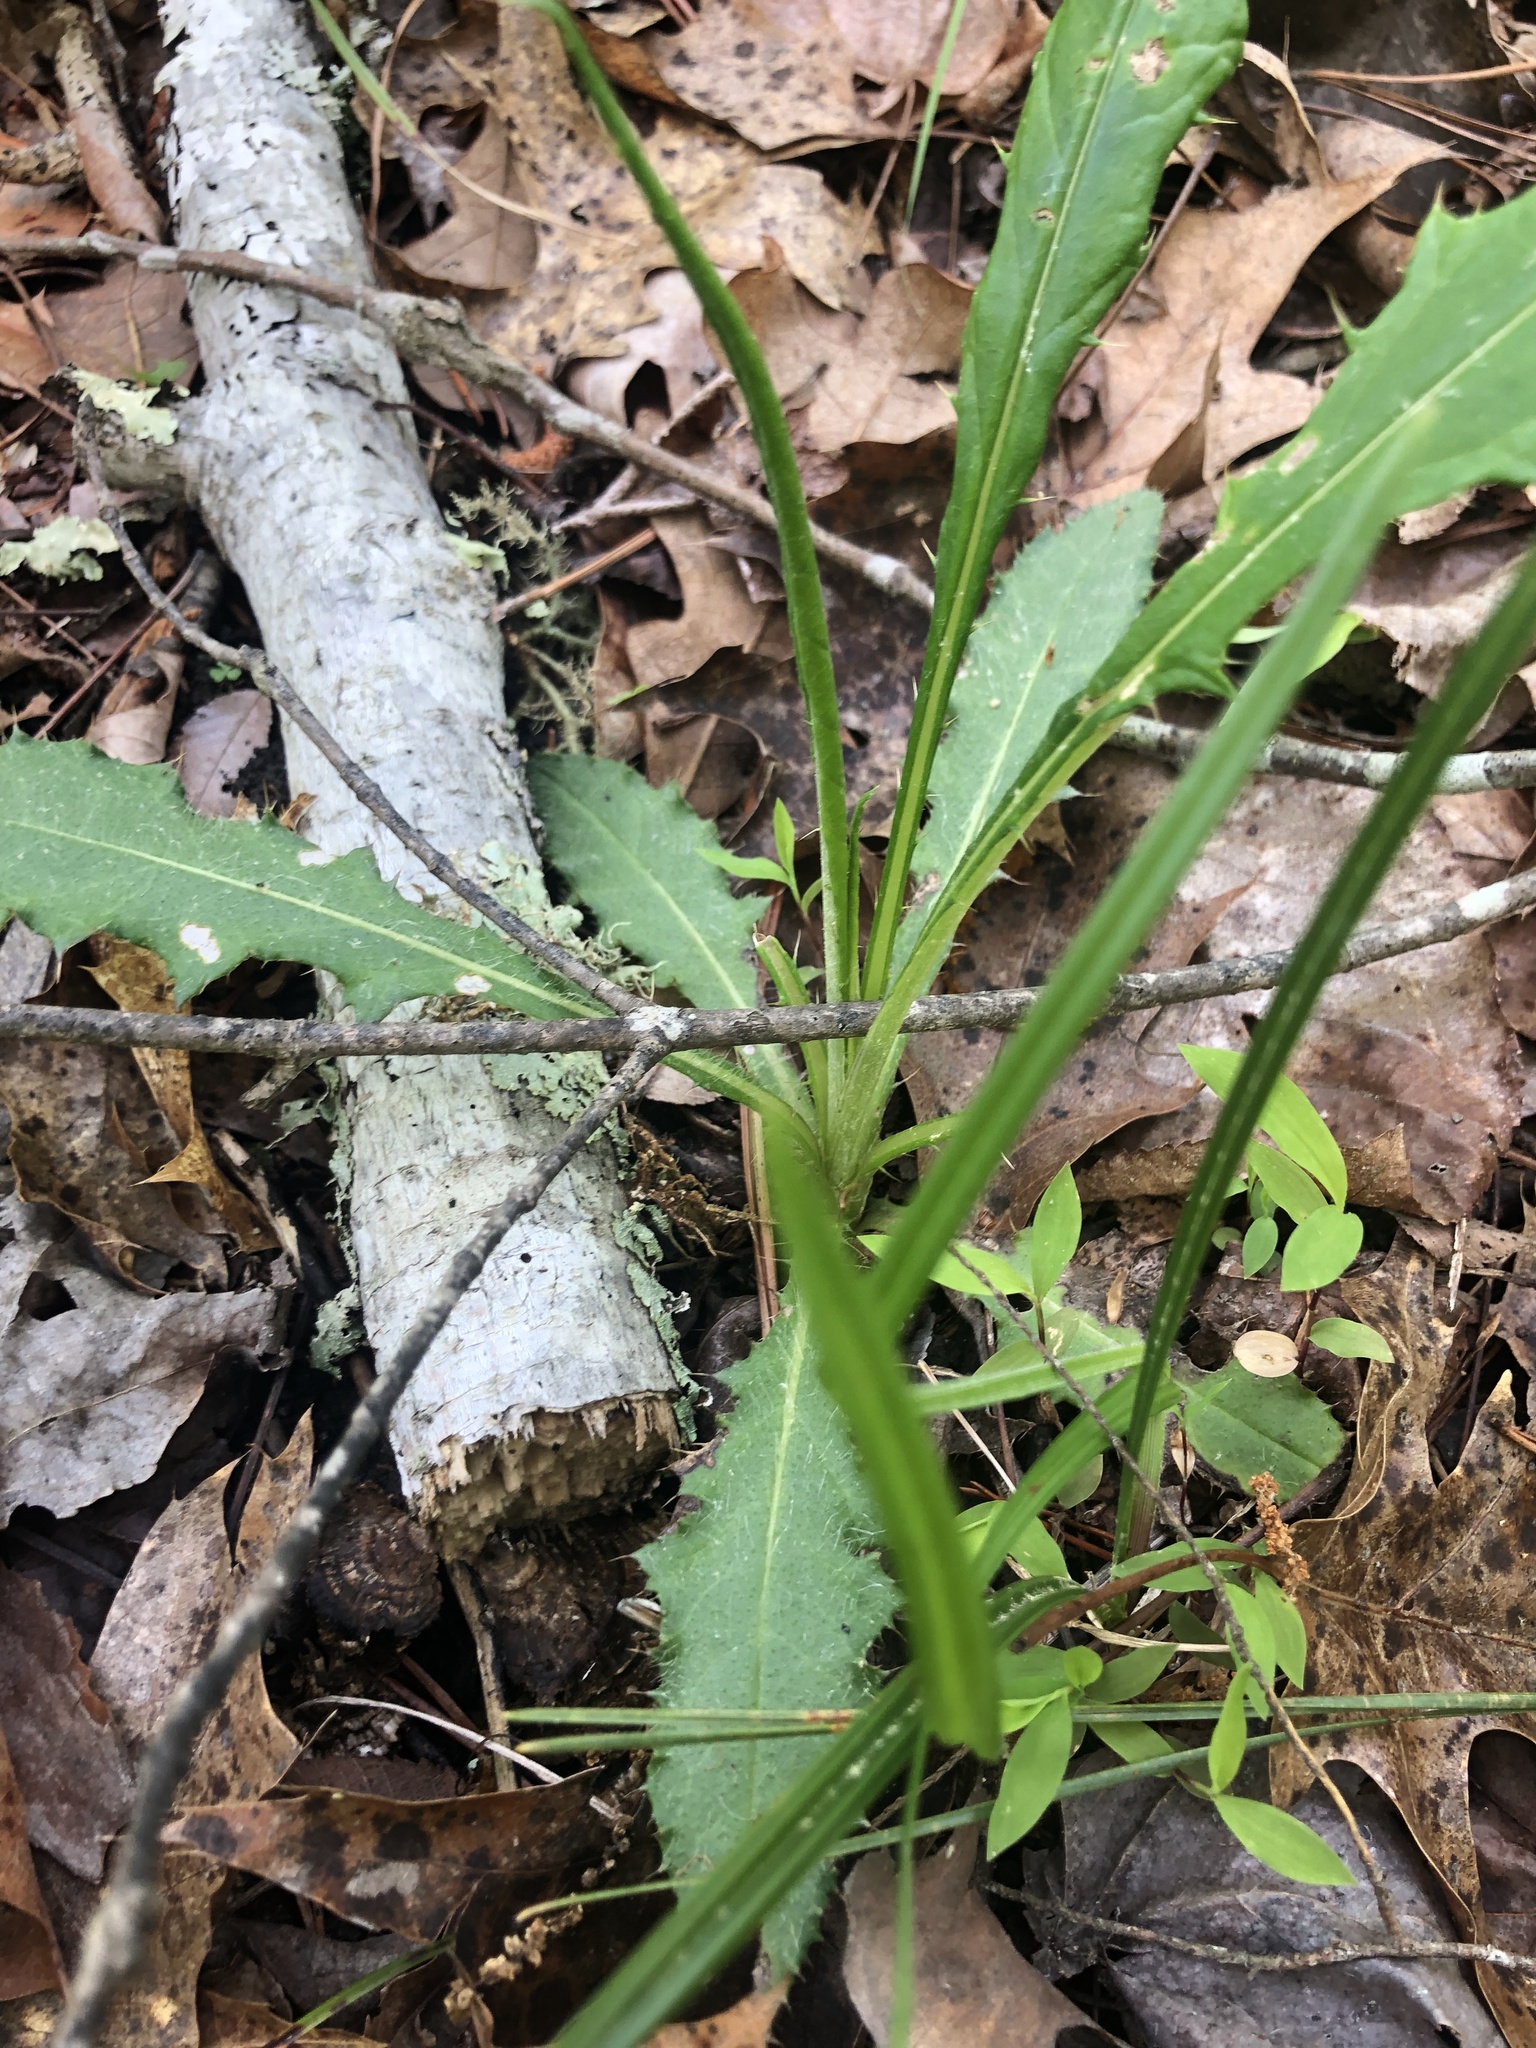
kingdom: Plantae
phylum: Tracheophyta
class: Magnoliopsida
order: Asterales
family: Asteraceae
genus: Cirsium
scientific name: Cirsium carolinianum
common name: Carolina thistle
